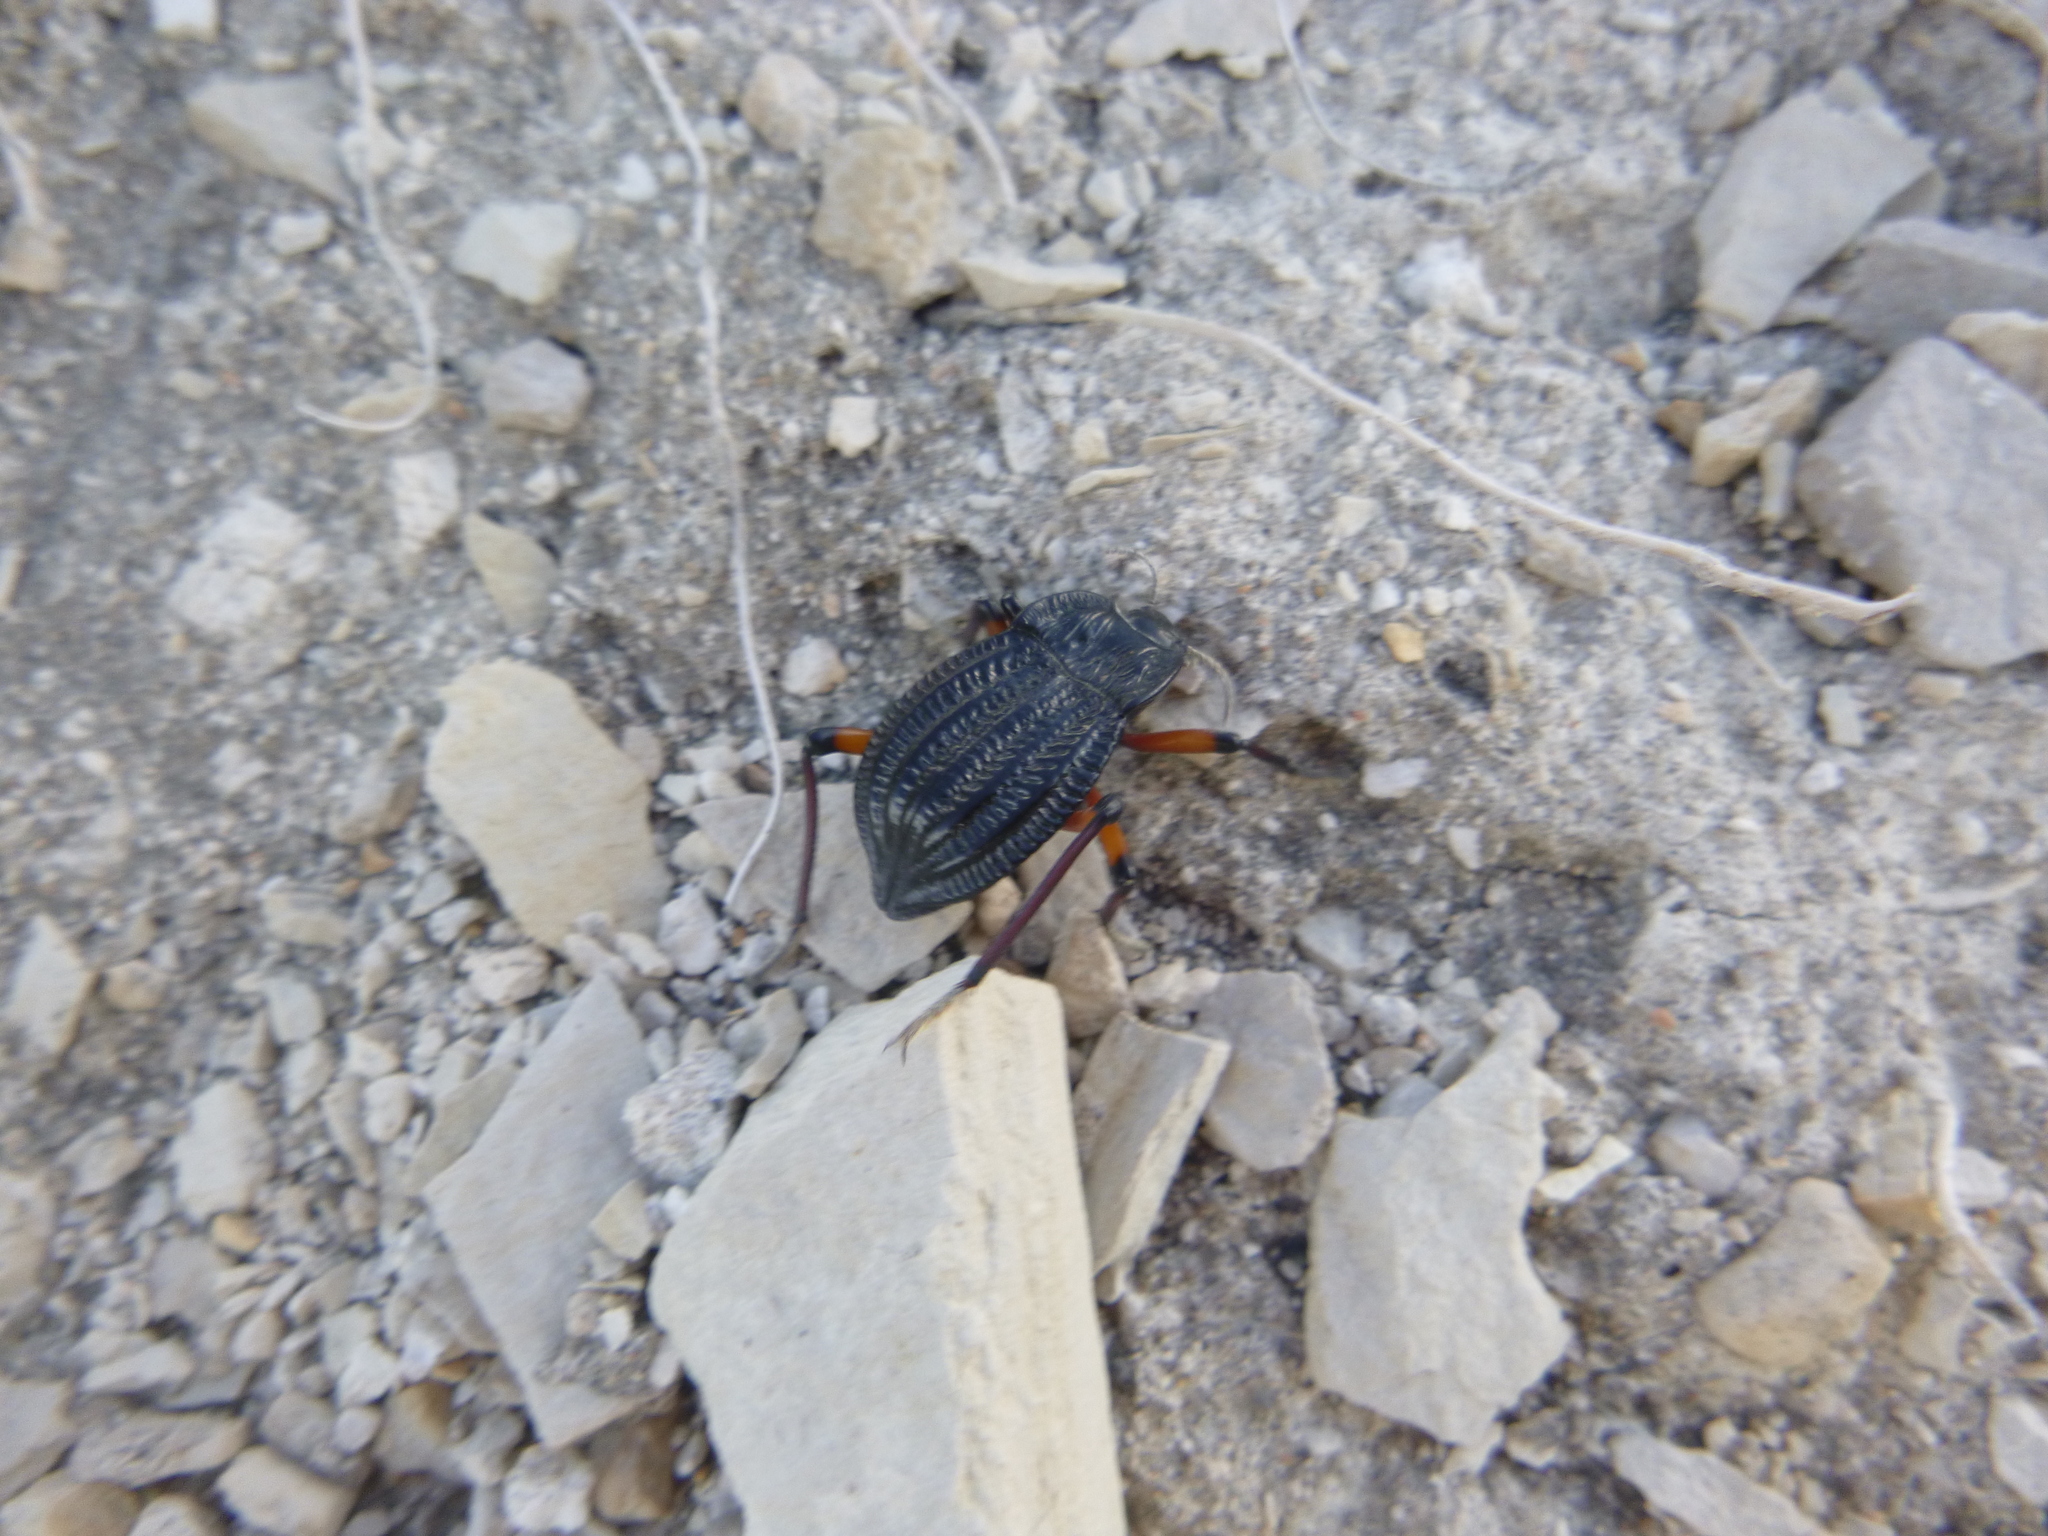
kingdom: Animalia
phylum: Arthropoda
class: Insecta
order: Coleoptera
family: Tenebrionidae
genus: Epipedonota
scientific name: Epipedonota
